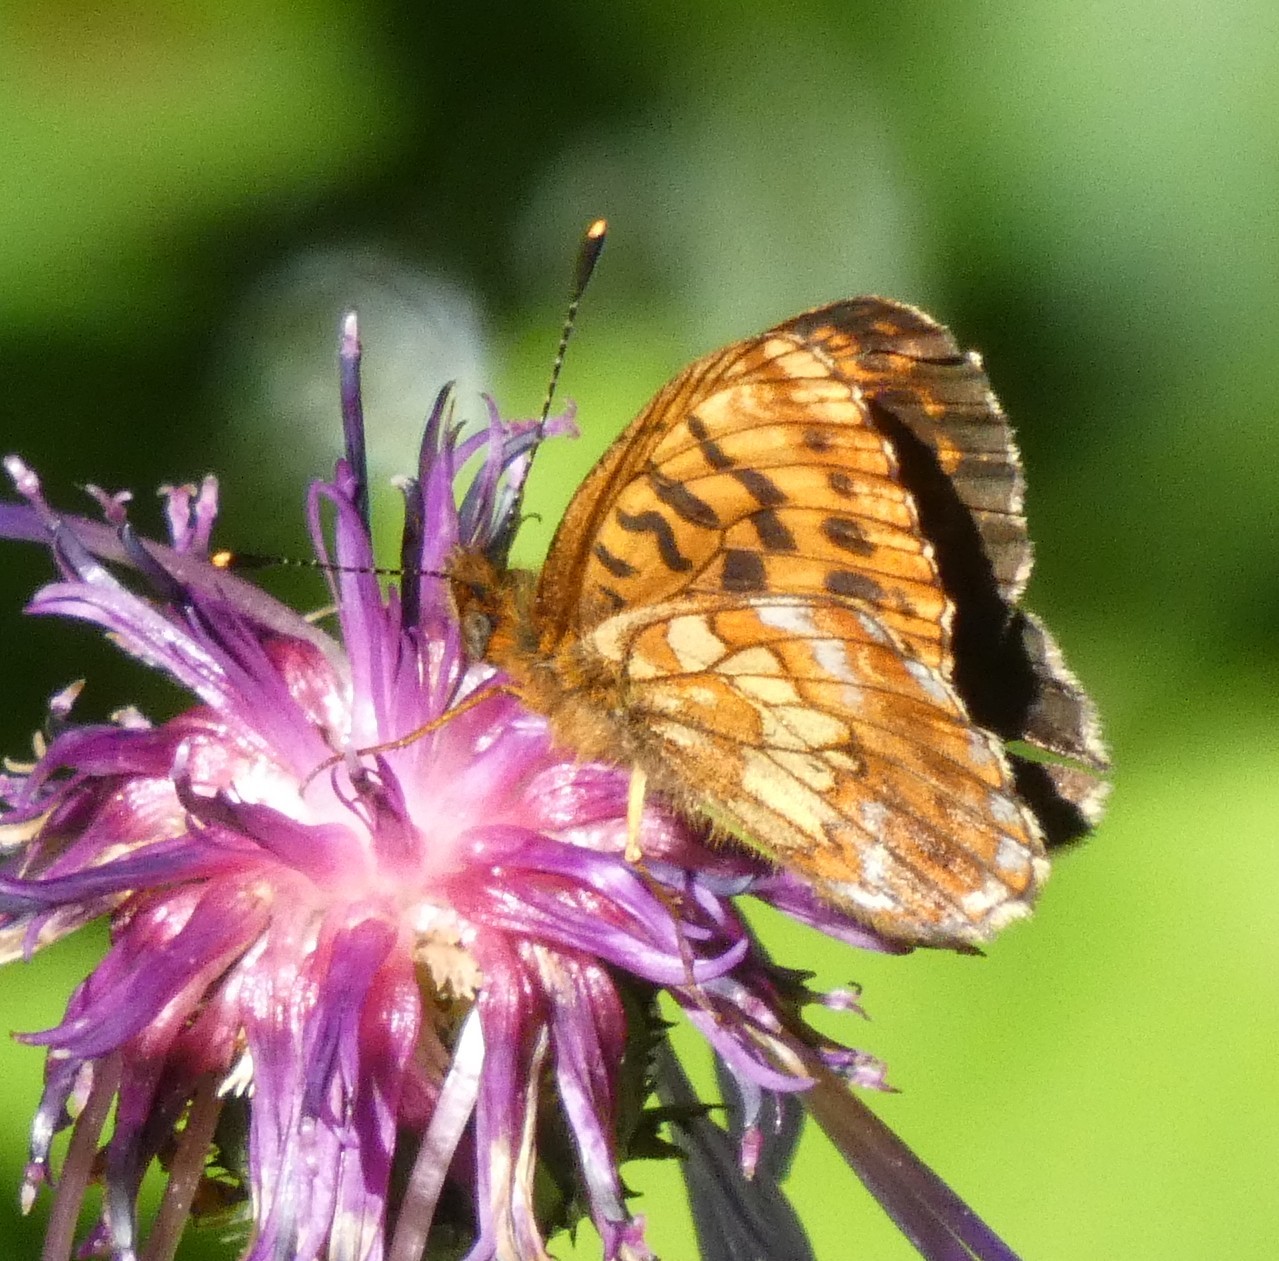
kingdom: Animalia
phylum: Arthropoda
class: Insecta
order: Lepidoptera
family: Nymphalidae
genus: Boloria
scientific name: Boloria thore
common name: Thor's fritillary
